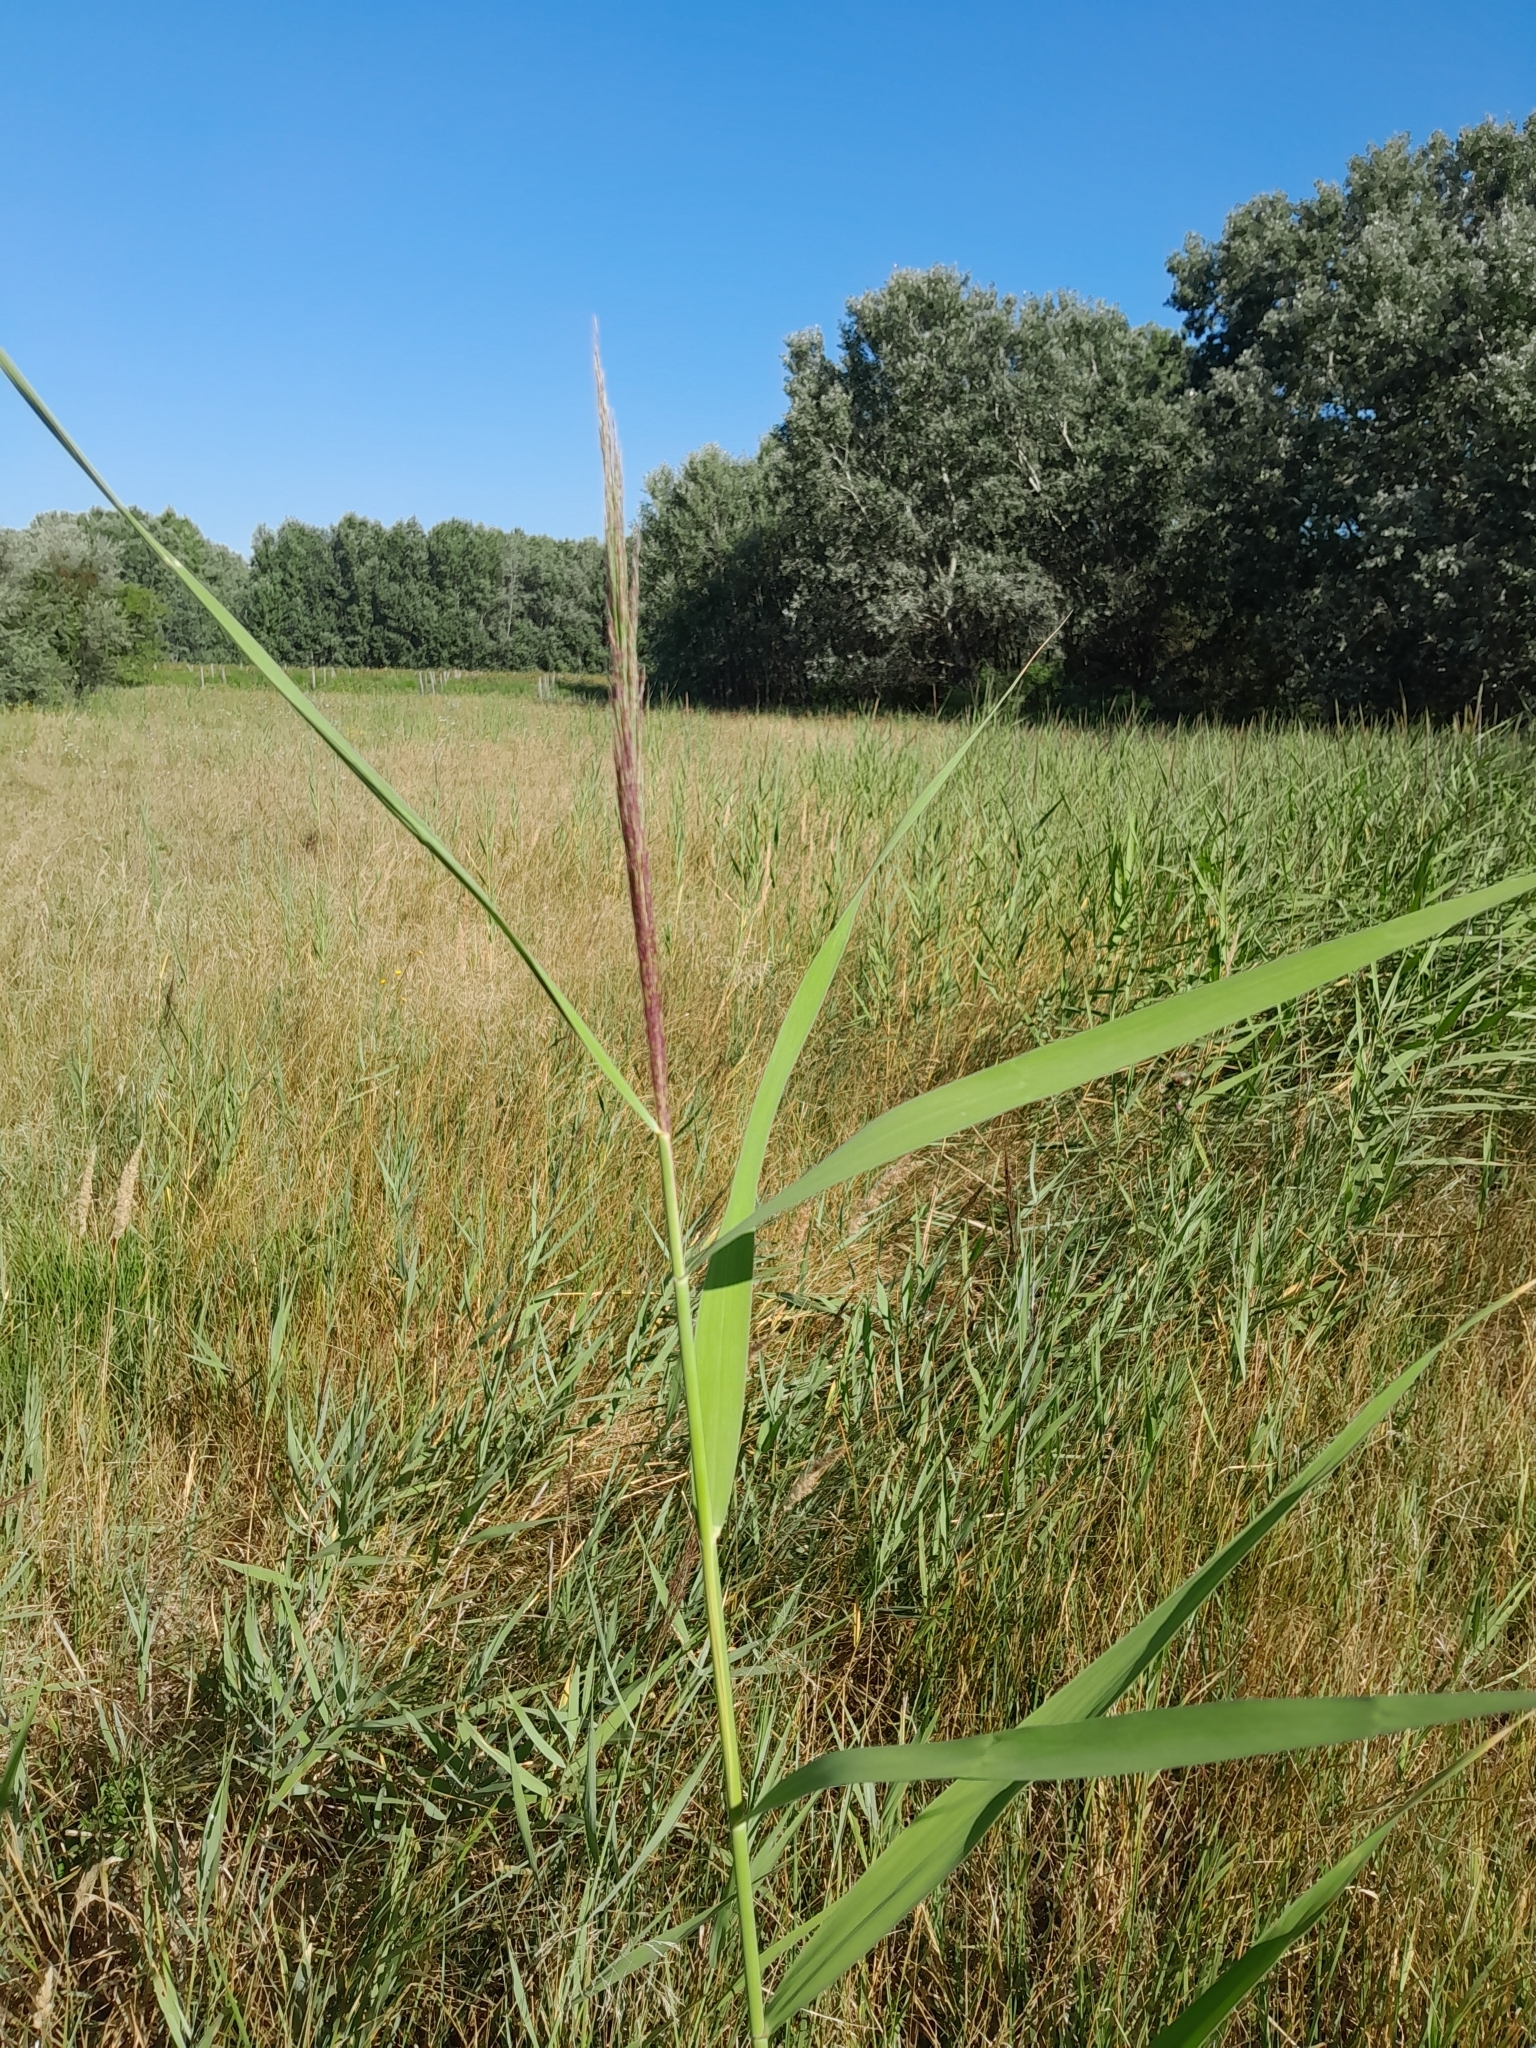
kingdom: Plantae
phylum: Tracheophyta
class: Liliopsida
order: Poales
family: Poaceae
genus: Phragmites
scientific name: Phragmites australis
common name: Common reed
